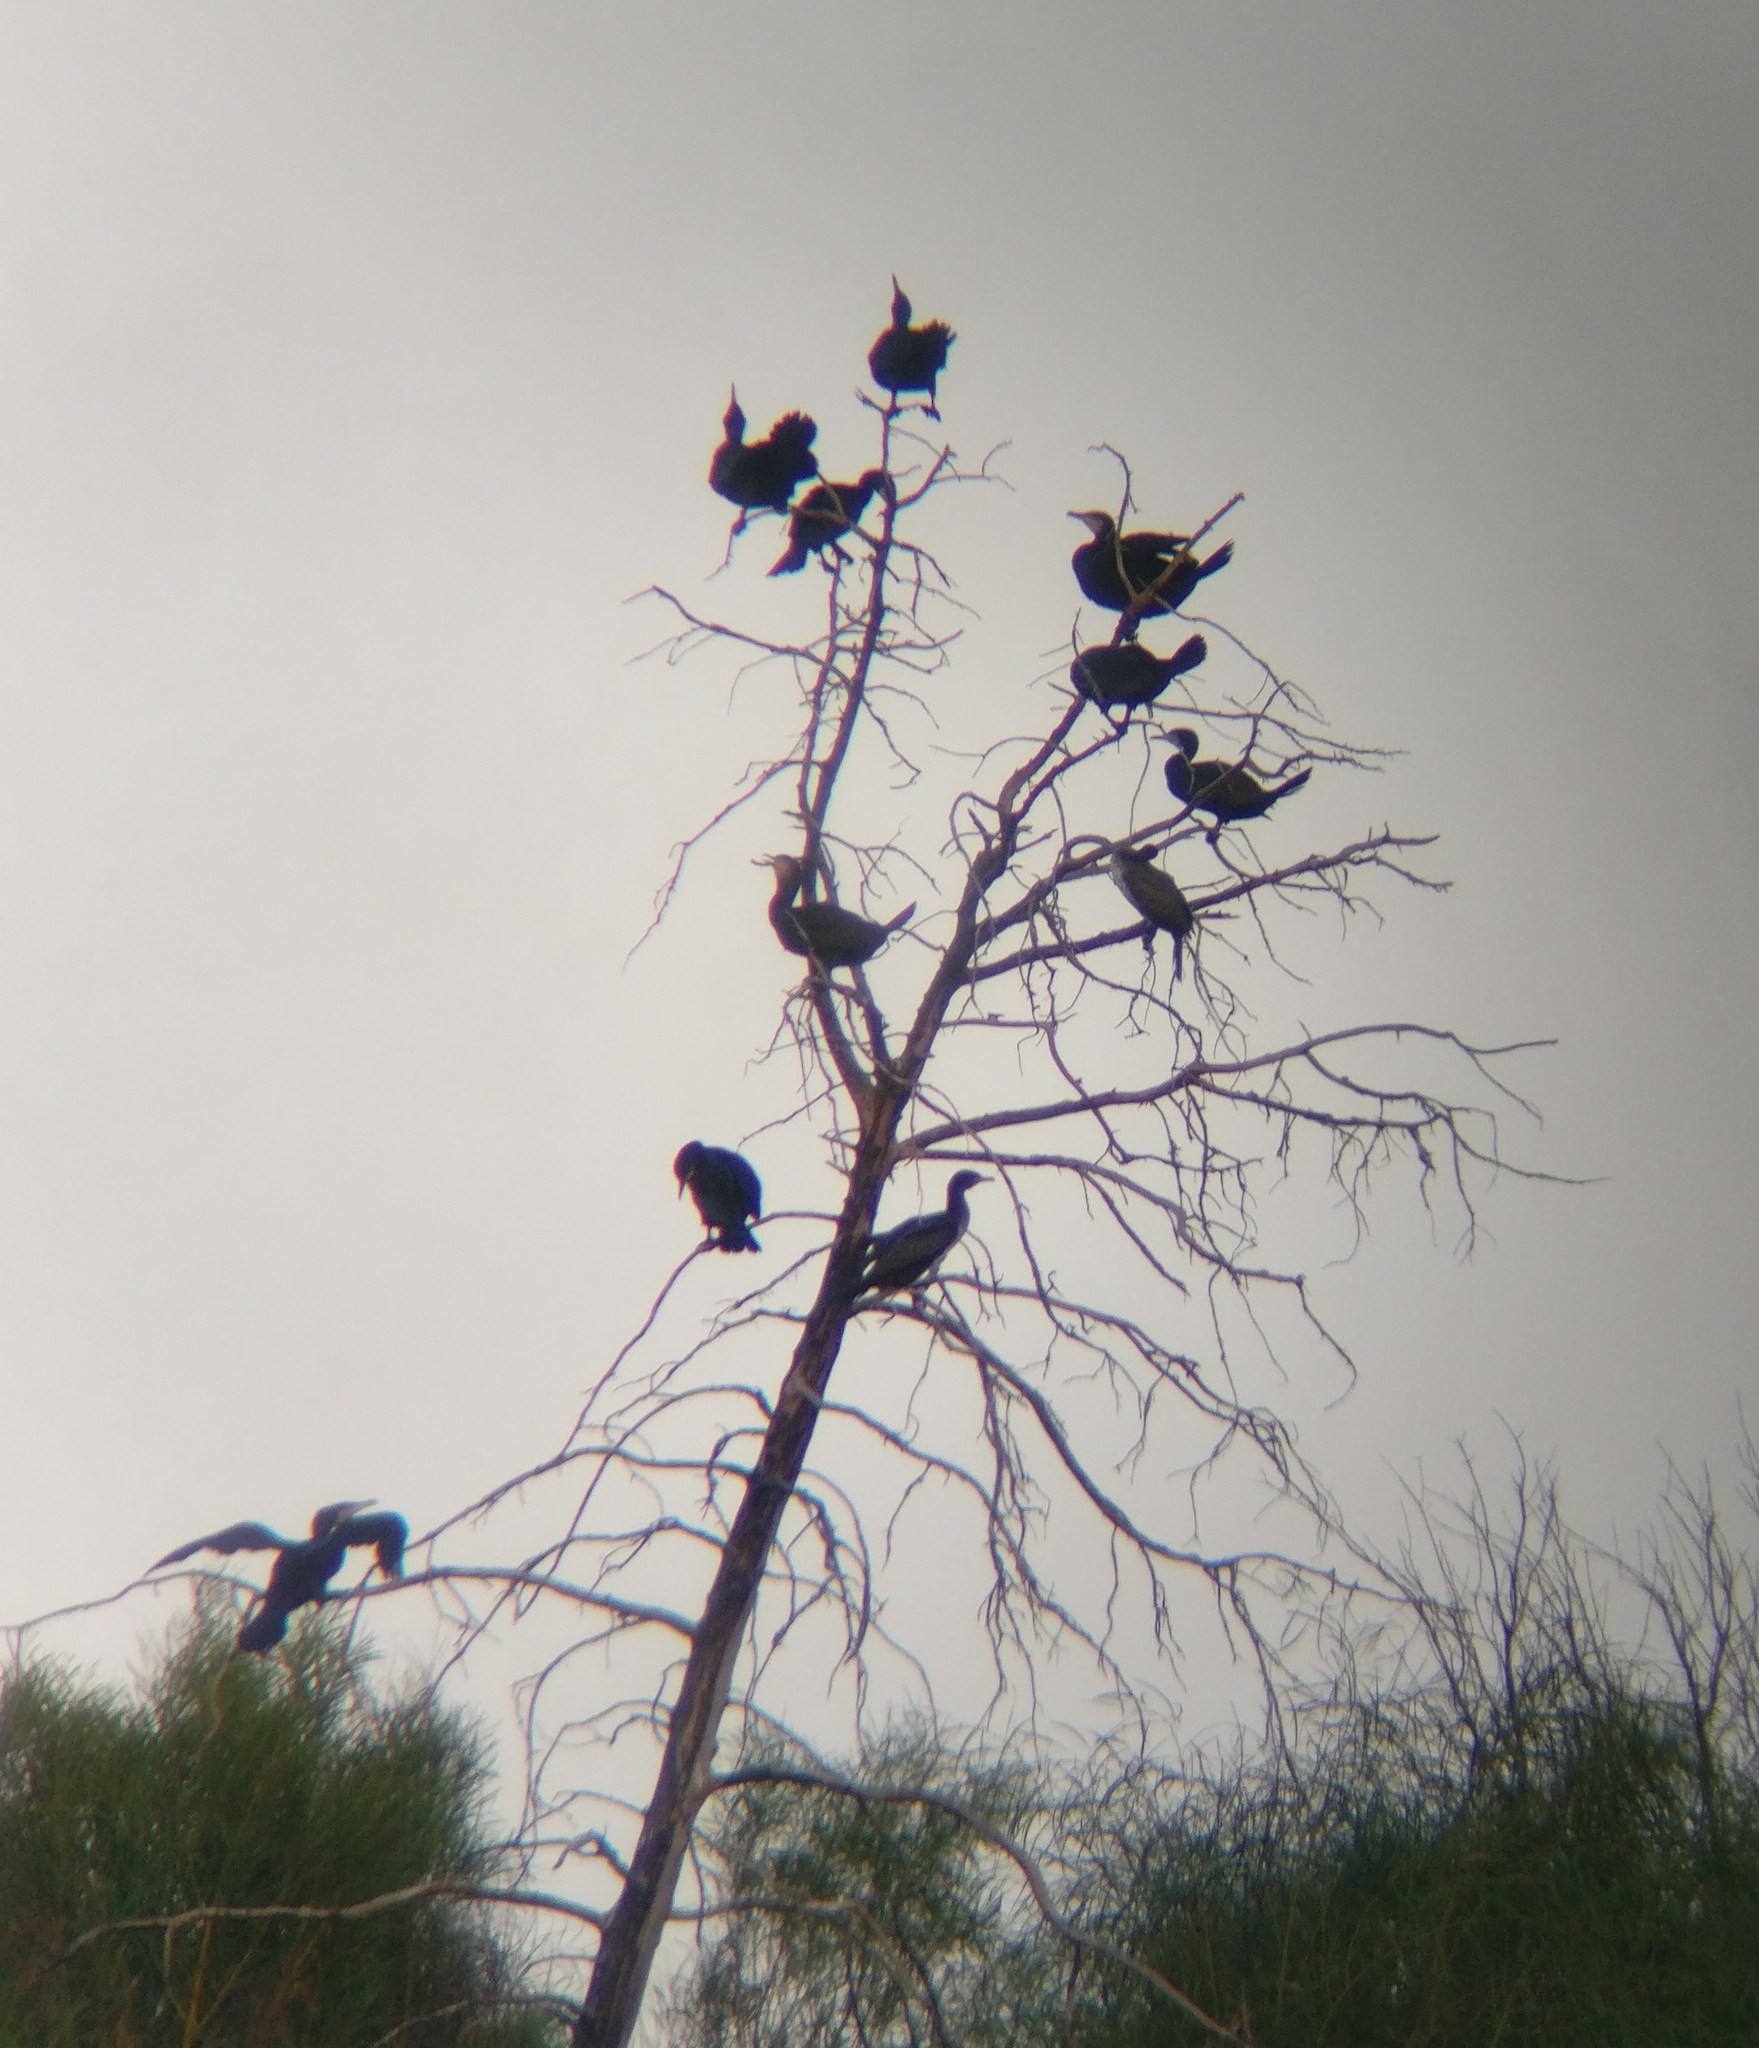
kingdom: Animalia
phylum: Chordata
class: Aves
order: Suliformes
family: Phalacrocoracidae
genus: Phalacrocorax
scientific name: Phalacrocorax carbo
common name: Great cormorant
